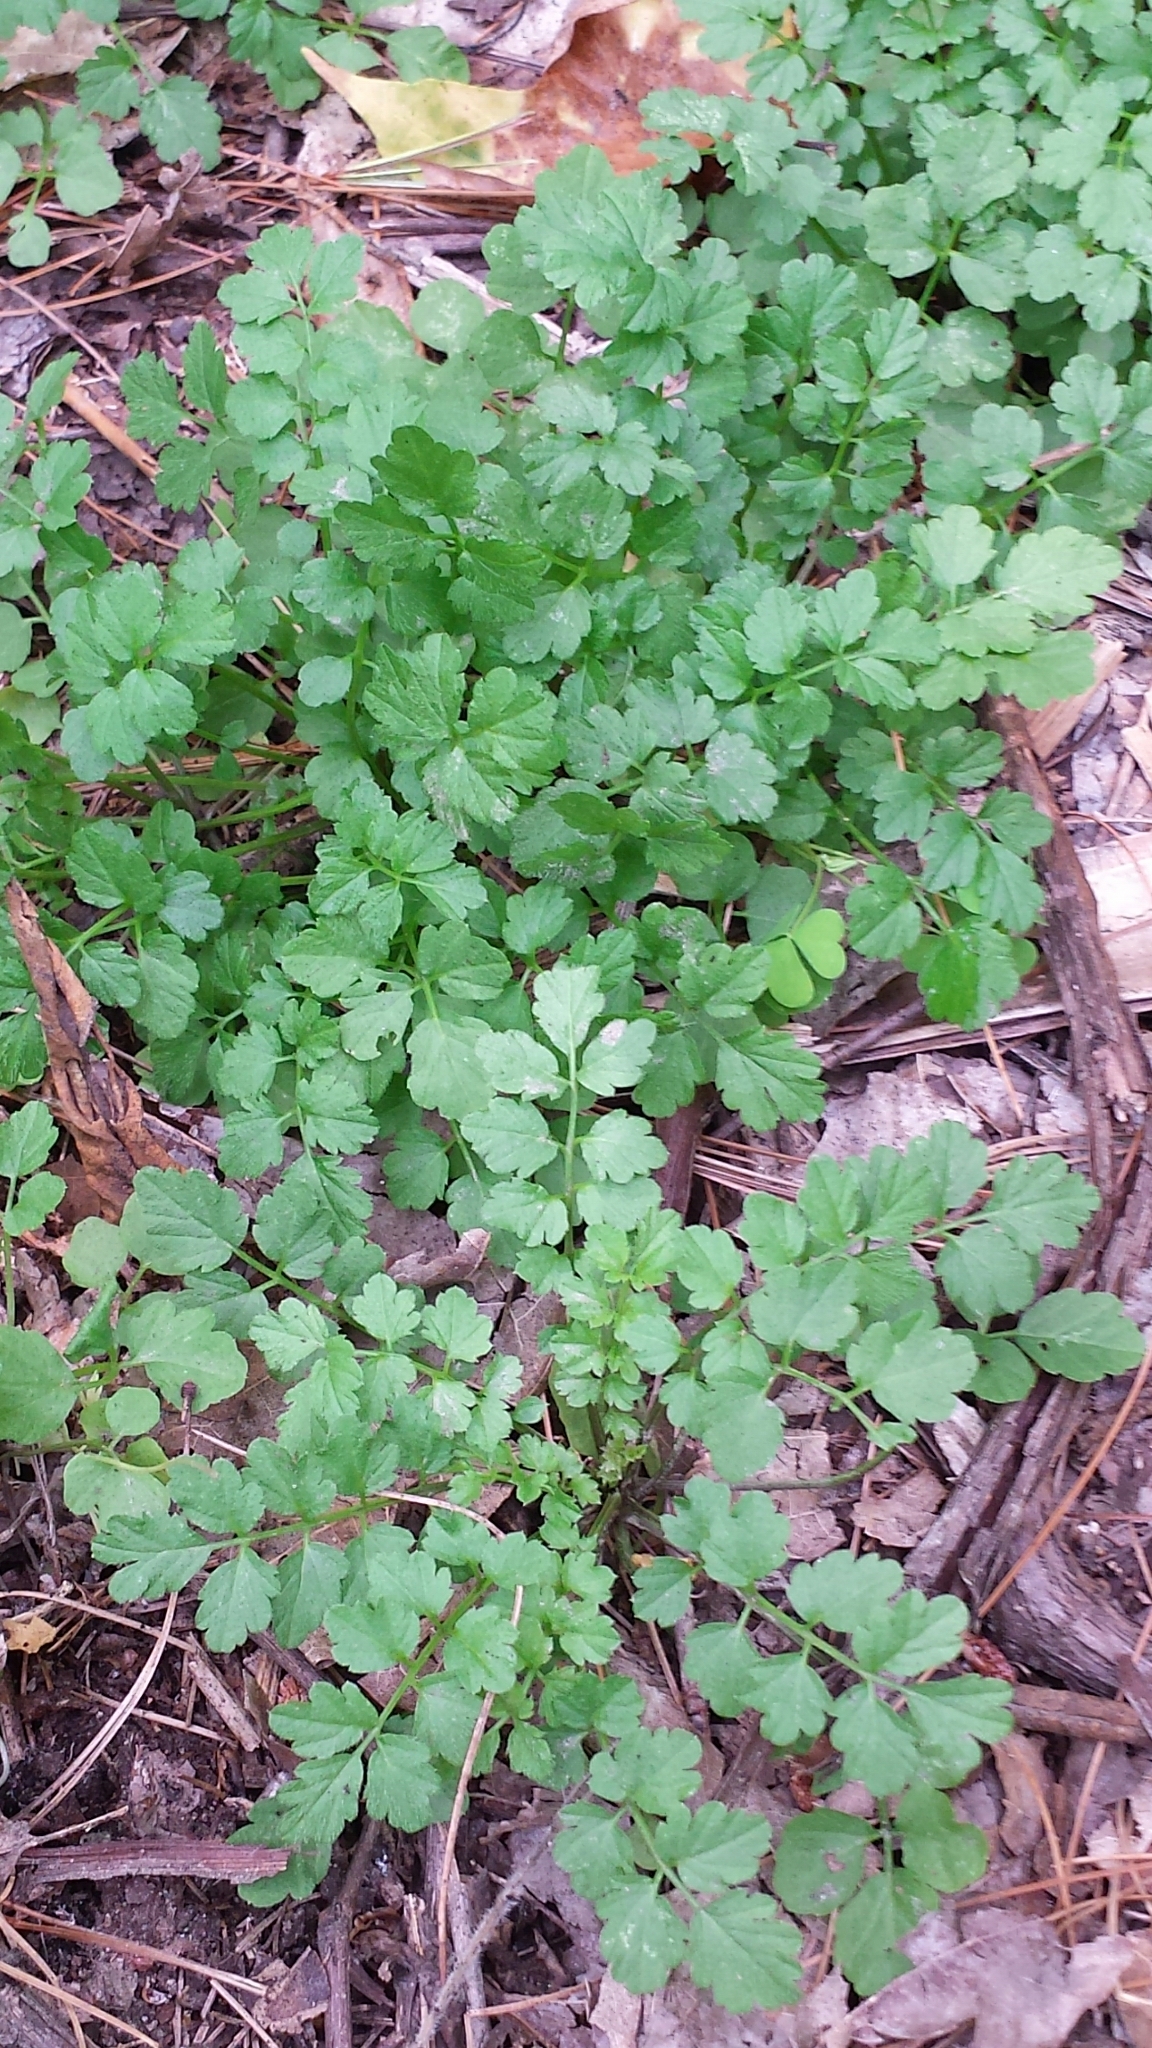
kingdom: Plantae
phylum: Tracheophyta
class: Magnoliopsida
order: Brassicales
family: Brassicaceae
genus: Cardamine
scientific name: Cardamine impatiens
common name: Narrow-leaved bitter-cress
